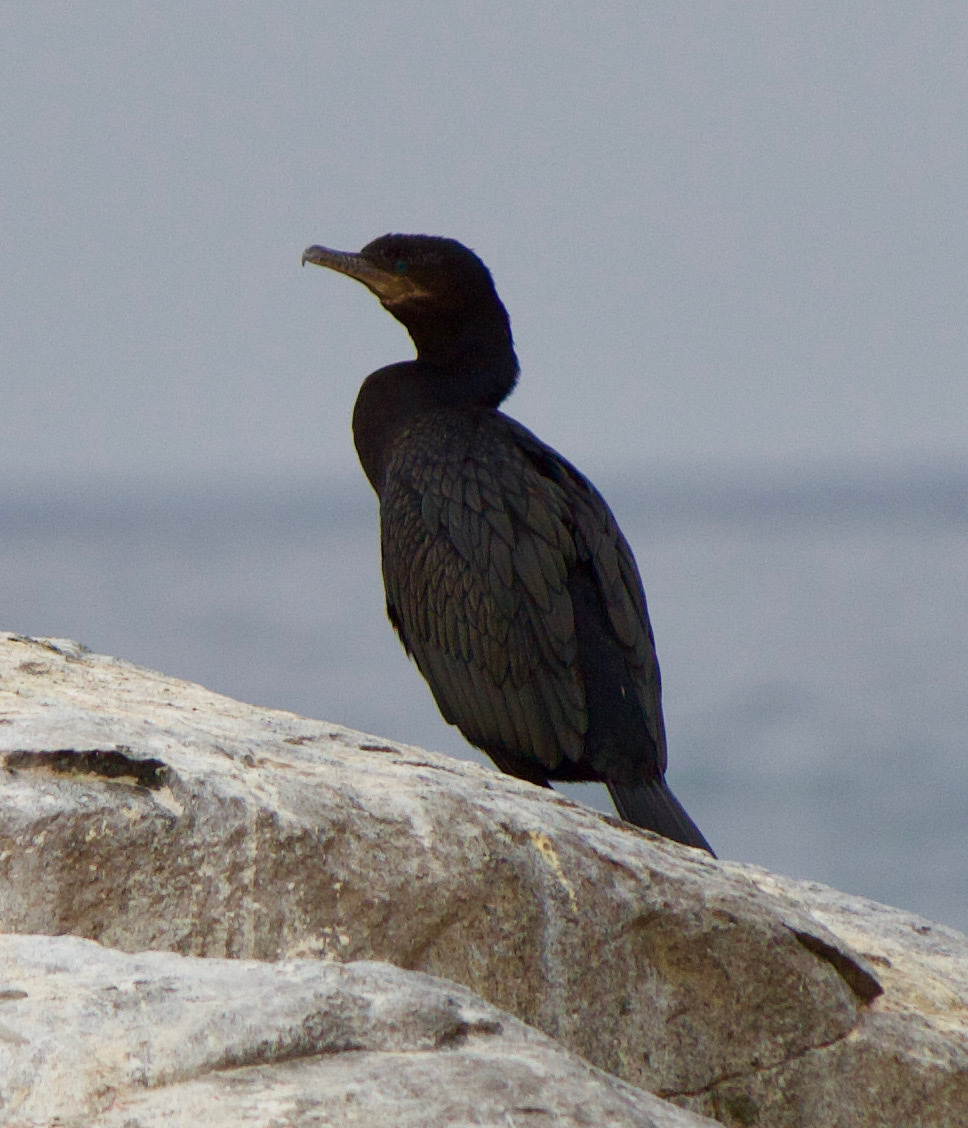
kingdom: Animalia
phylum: Chordata
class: Aves
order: Suliformes
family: Phalacrocoracidae
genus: Phalacrocorax
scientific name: Phalacrocorax brasilianus
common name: Neotropic cormorant
